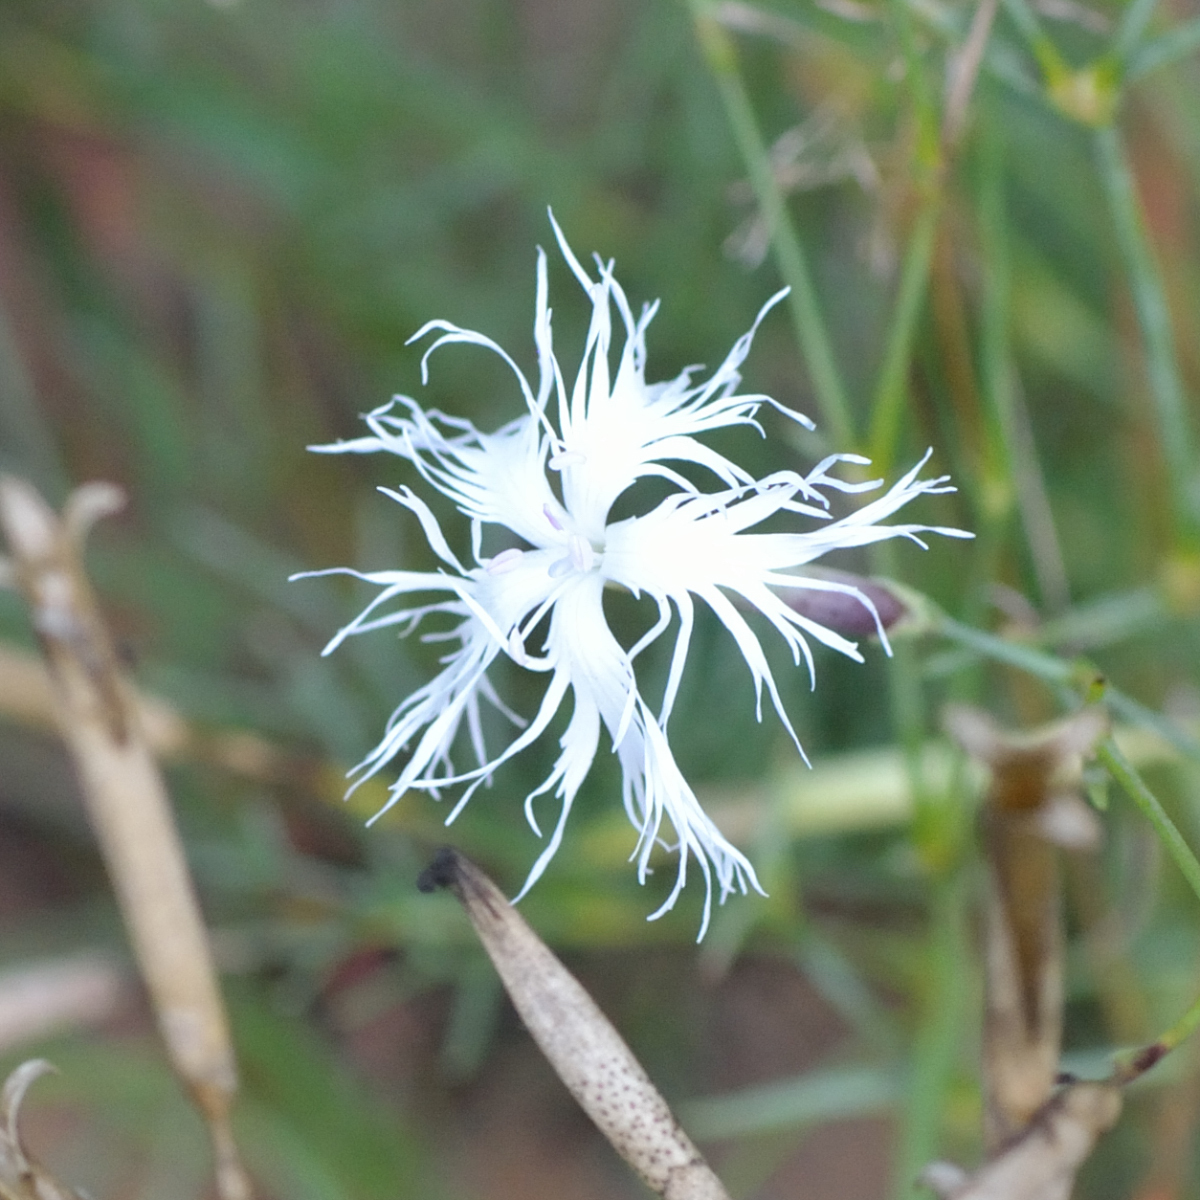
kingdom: Plantae
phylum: Tracheophyta
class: Magnoliopsida
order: Caryophyllales
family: Caryophyllaceae
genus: Dianthus
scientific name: Dianthus arenarius
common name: Stone pink
